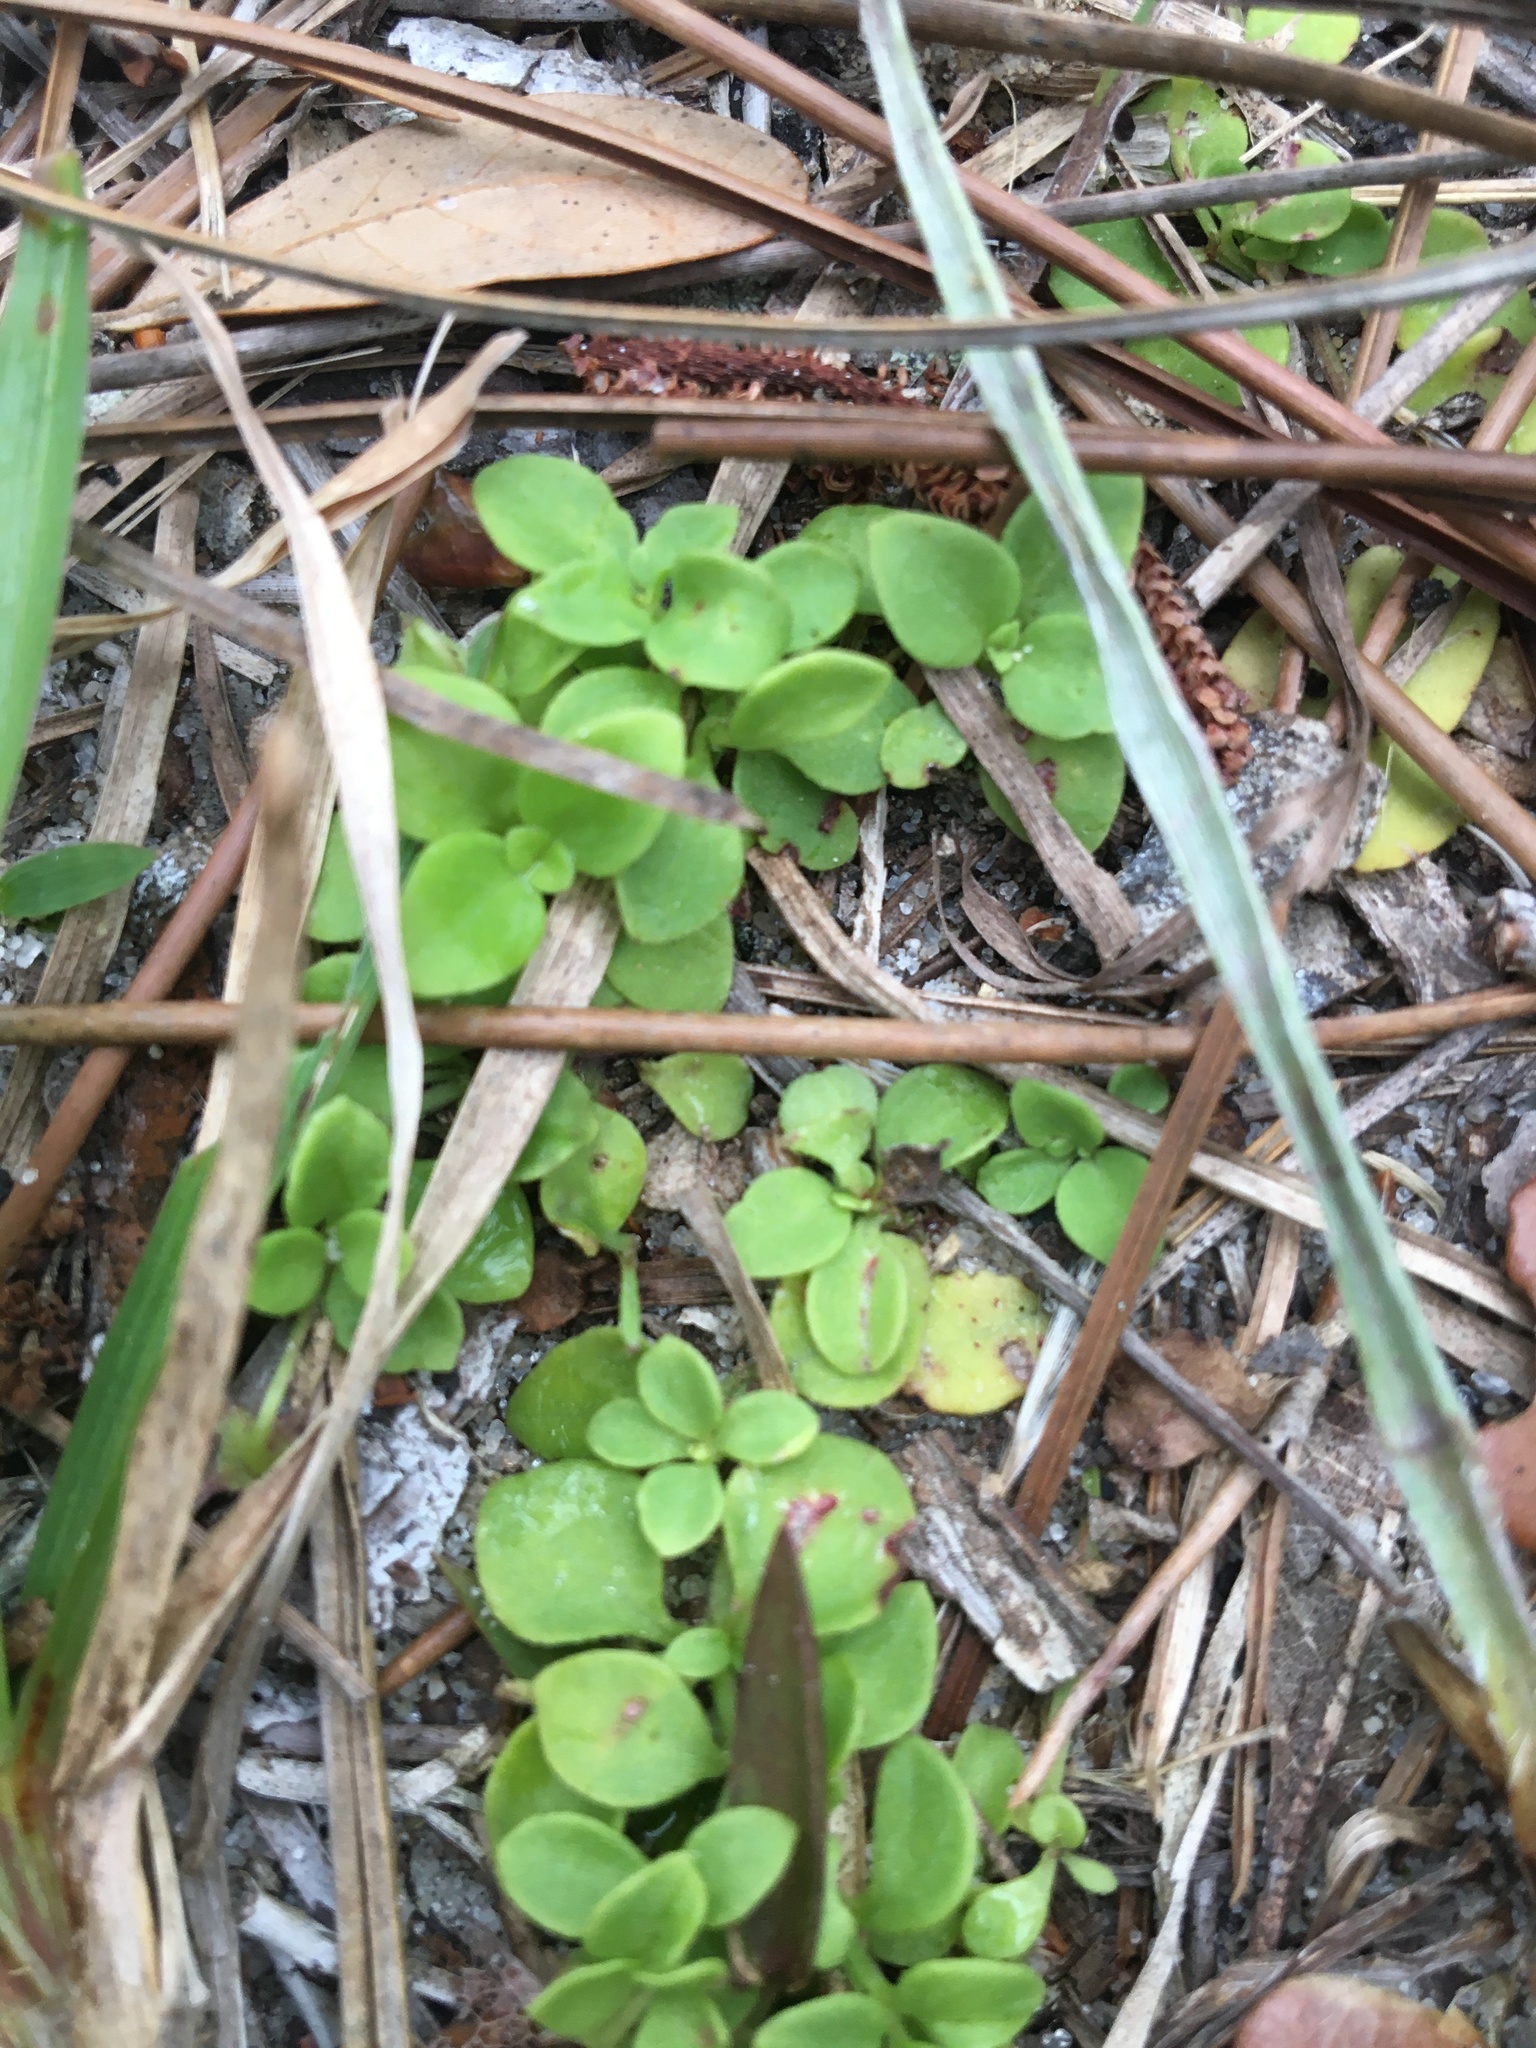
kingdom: Plantae
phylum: Tracheophyta
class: Magnoliopsida
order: Gentianales
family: Rubiaceae
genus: Houstonia
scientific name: Houstonia procumbens
